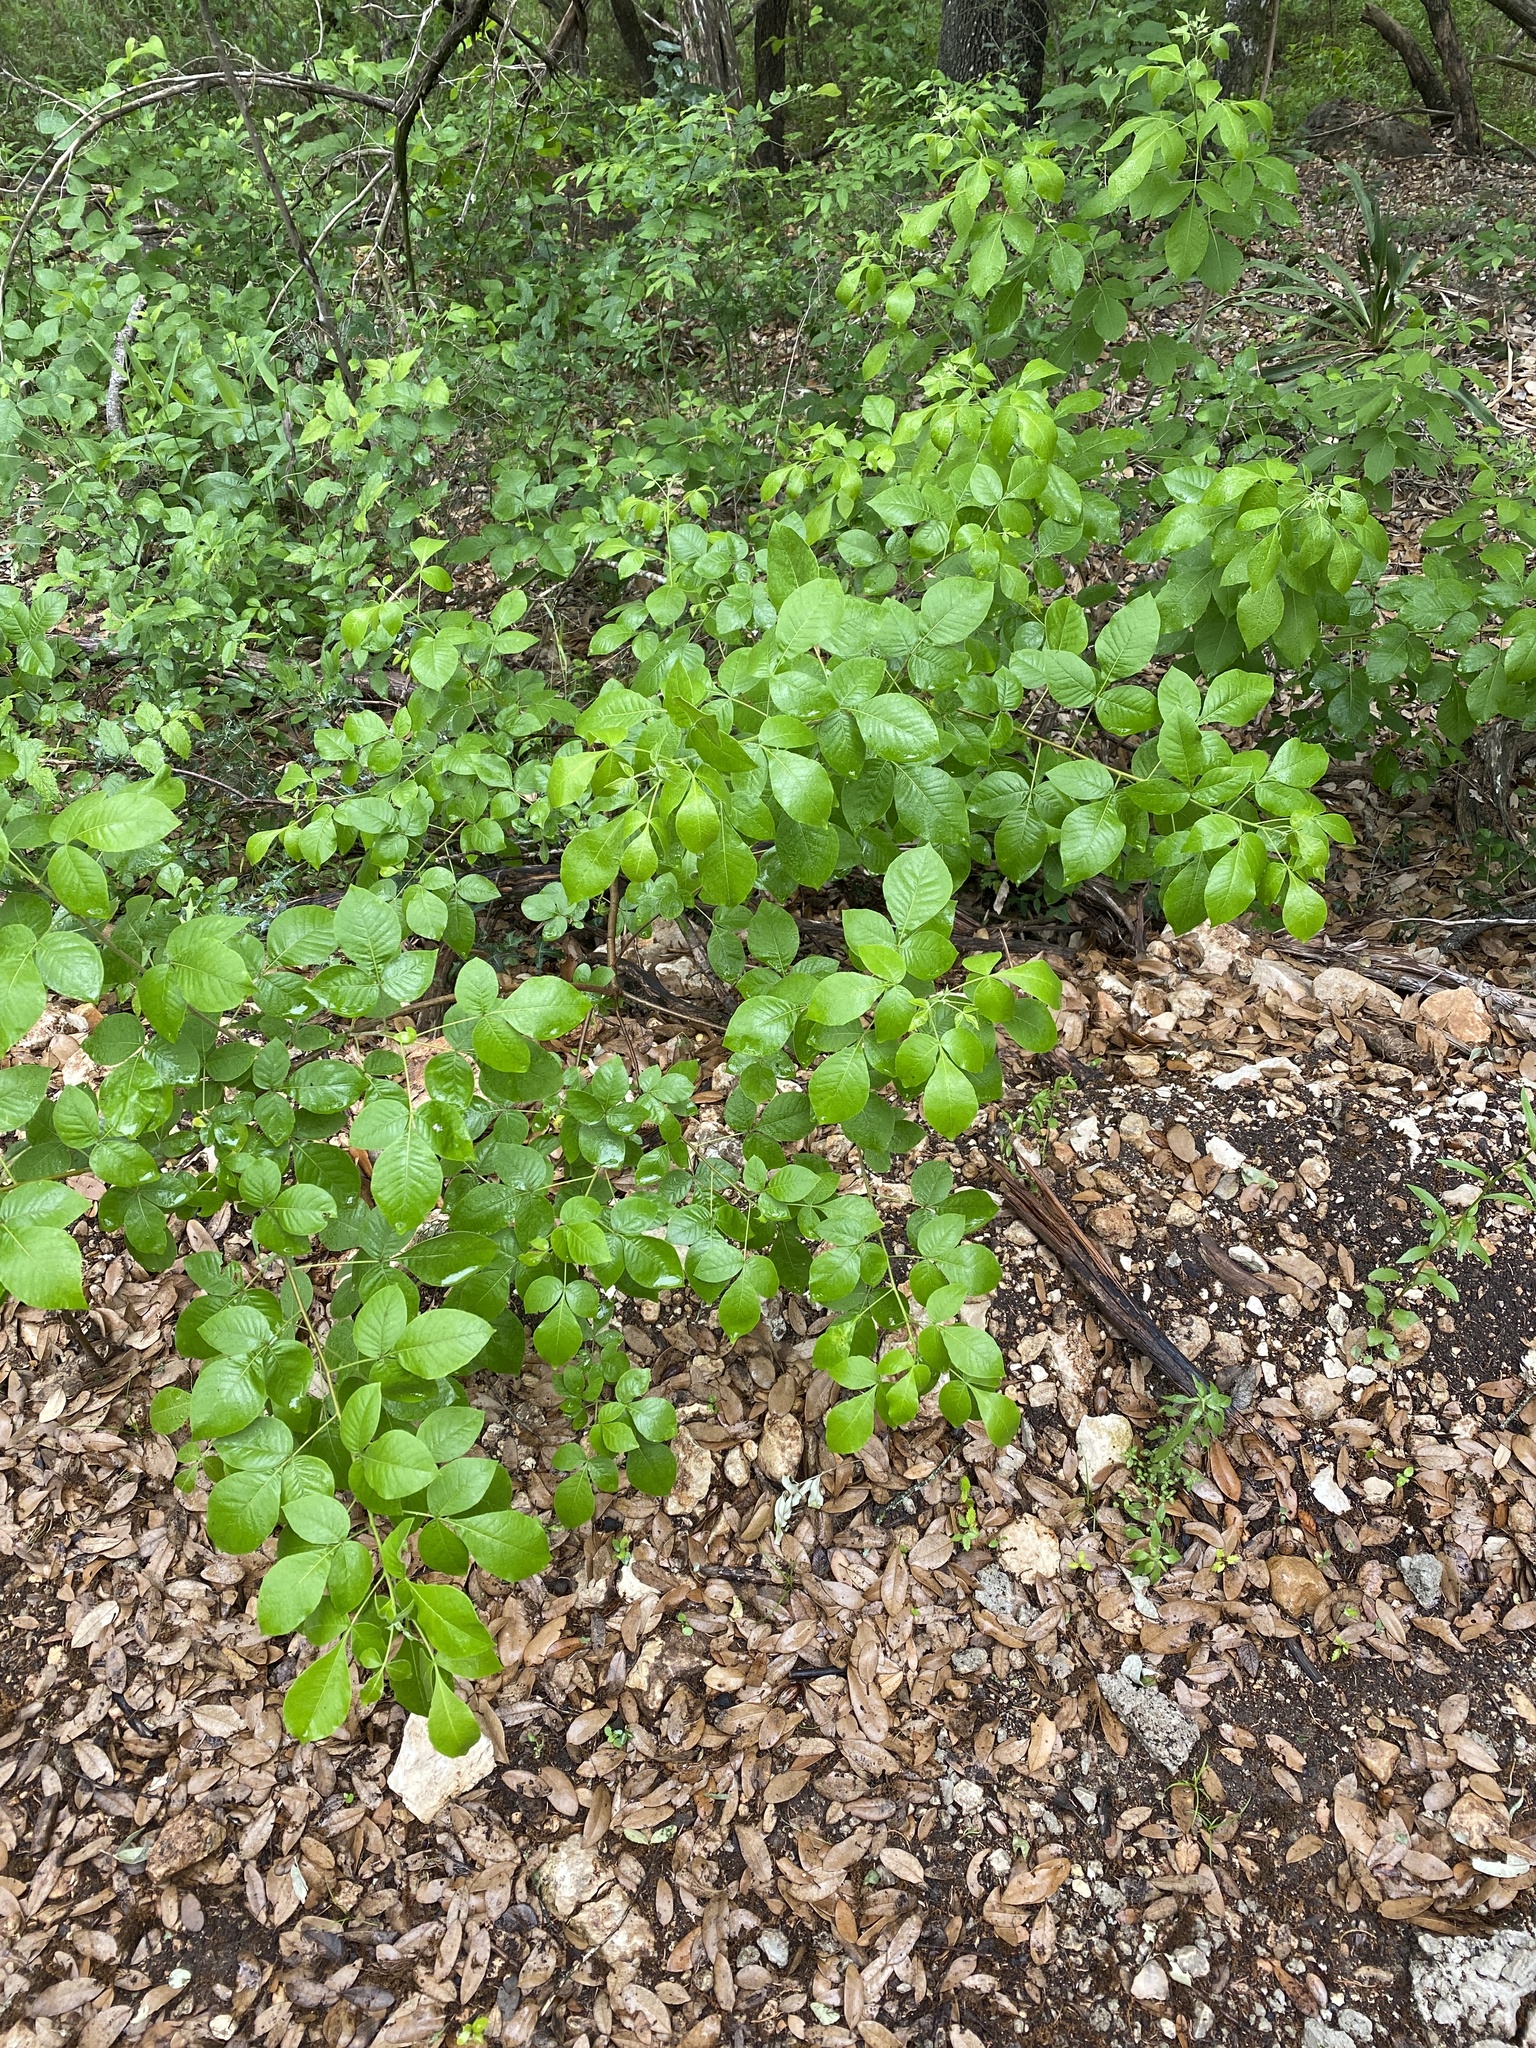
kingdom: Plantae
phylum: Tracheophyta
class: Magnoliopsida
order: Sapindales
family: Rutaceae
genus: Ptelea
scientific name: Ptelea trifoliata
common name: Common hop-tree
